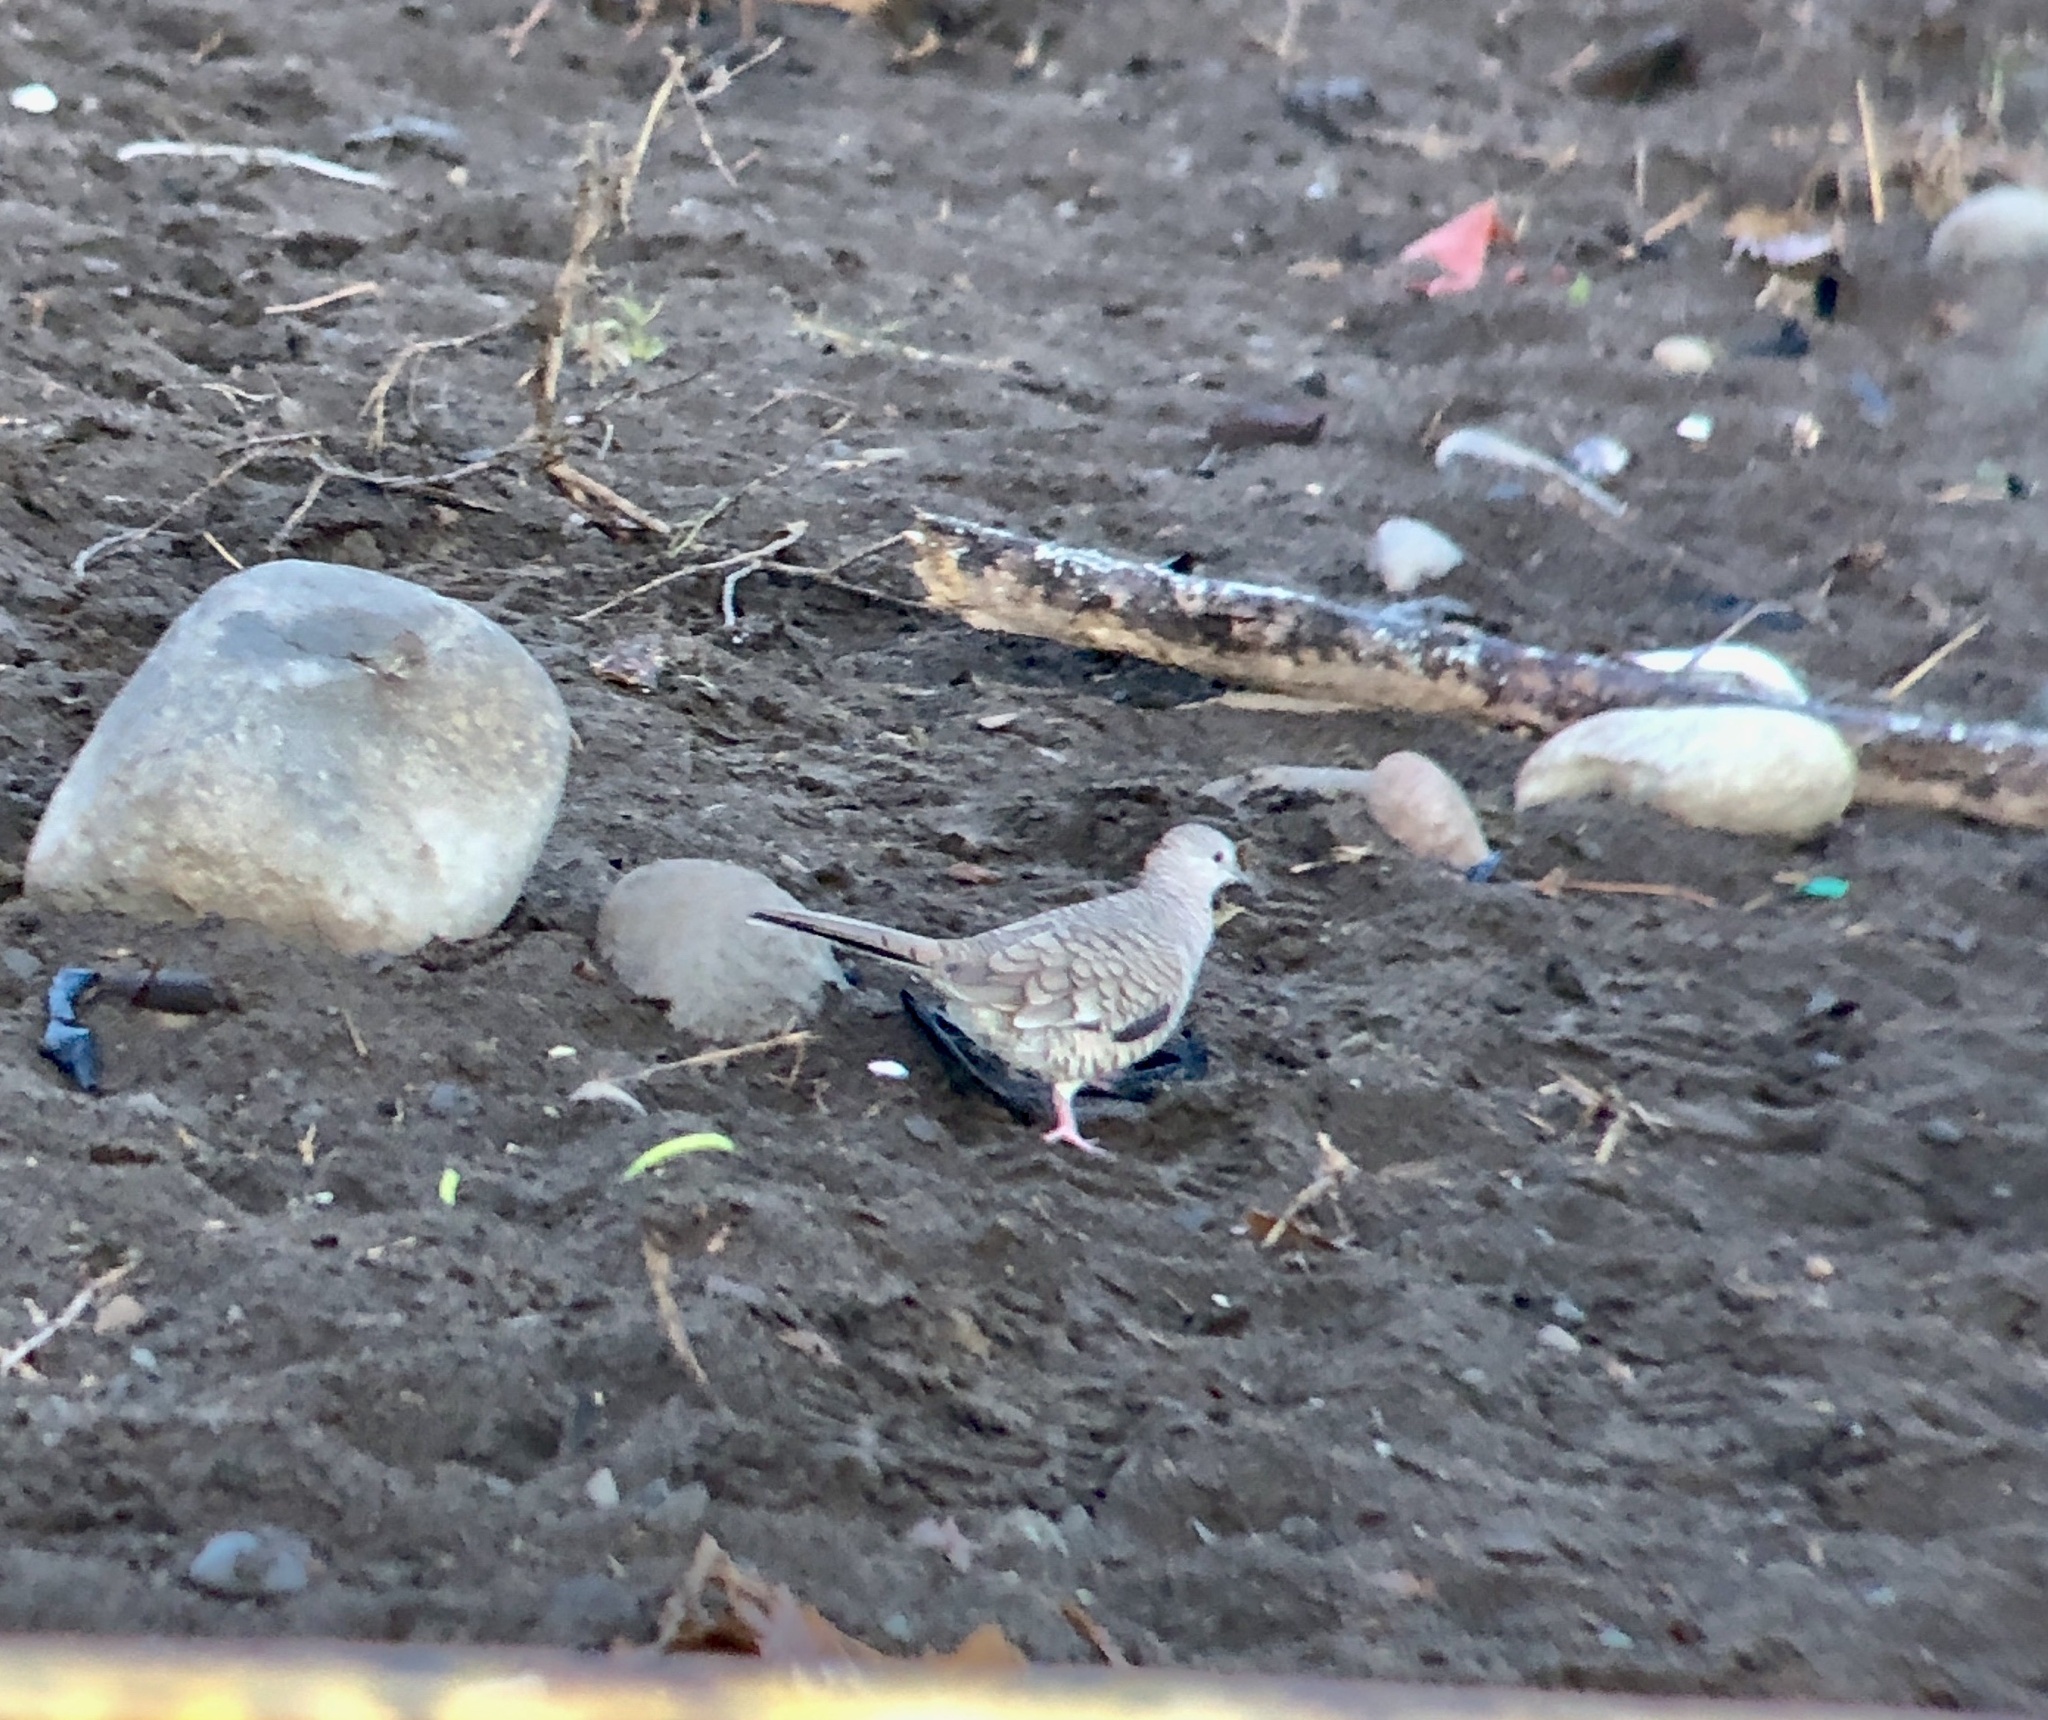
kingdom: Animalia
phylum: Chordata
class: Aves
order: Columbiformes
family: Columbidae
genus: Columbina
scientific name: Columbina inca
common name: Inca dove
